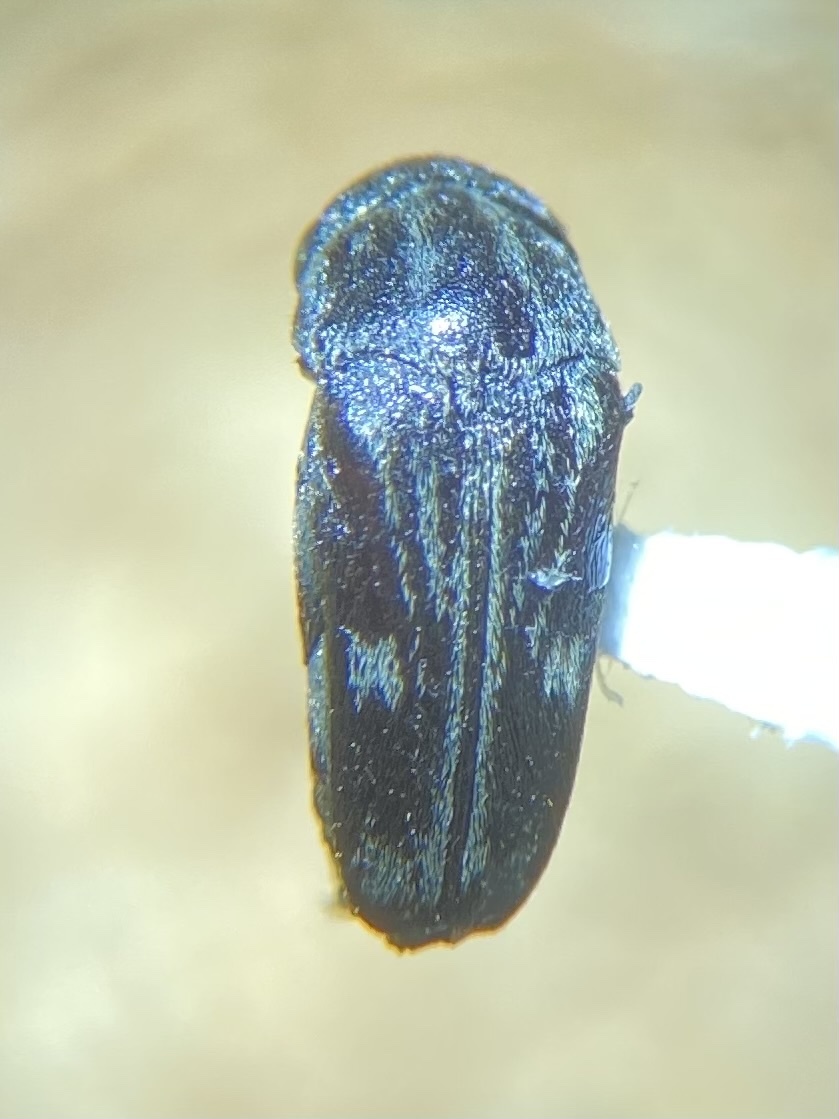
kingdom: Animalia
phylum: Arthropoda
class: Insecta
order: Coleoptera
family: Mordellidae
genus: Tomoxia
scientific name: Tomoxia lineella
